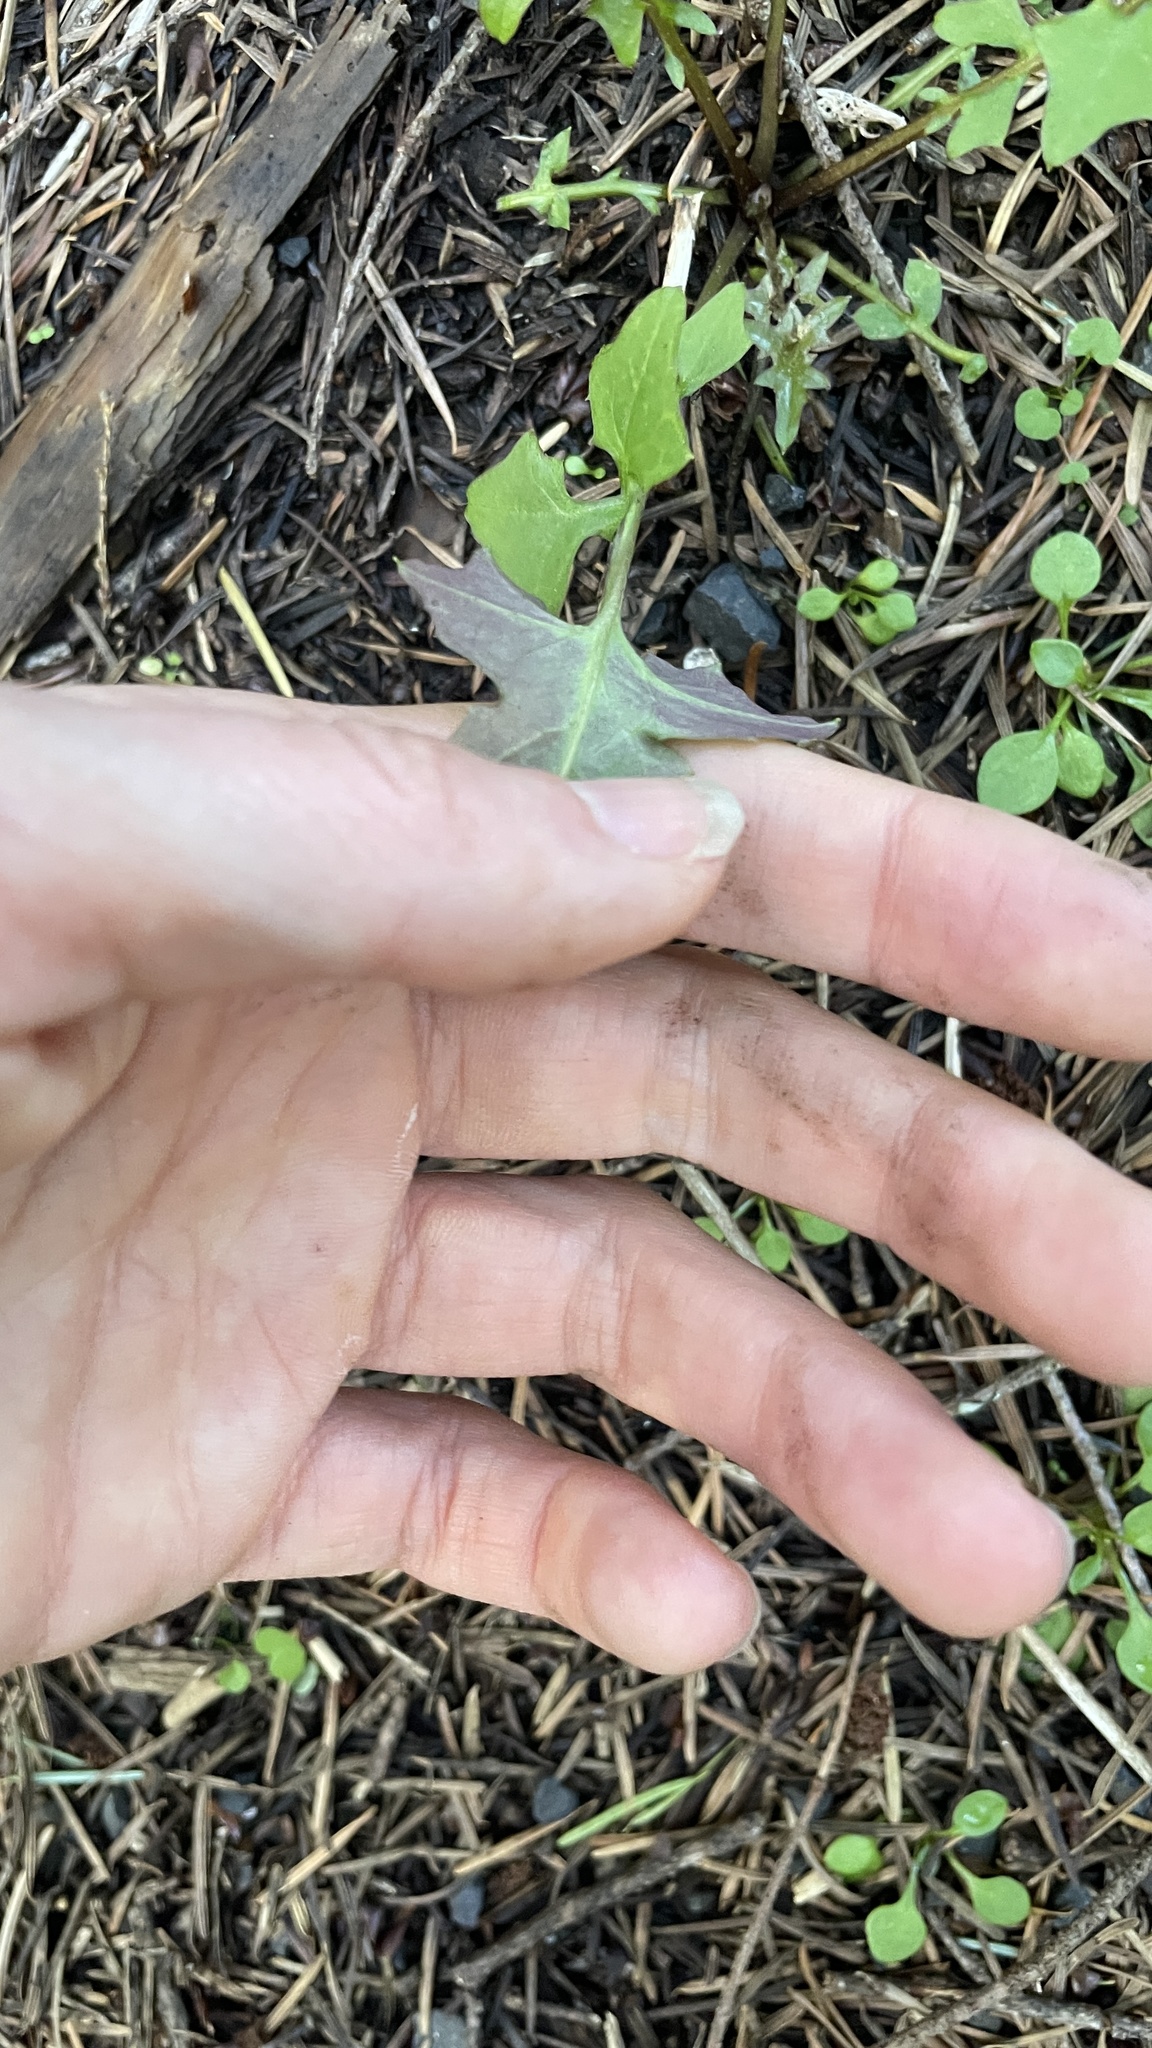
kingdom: Plantae
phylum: Tracheophyta
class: Magnoliopsida
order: Asterales
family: Asteraceae
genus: Mycelis
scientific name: Mycelis muralis
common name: Wall lettuce
